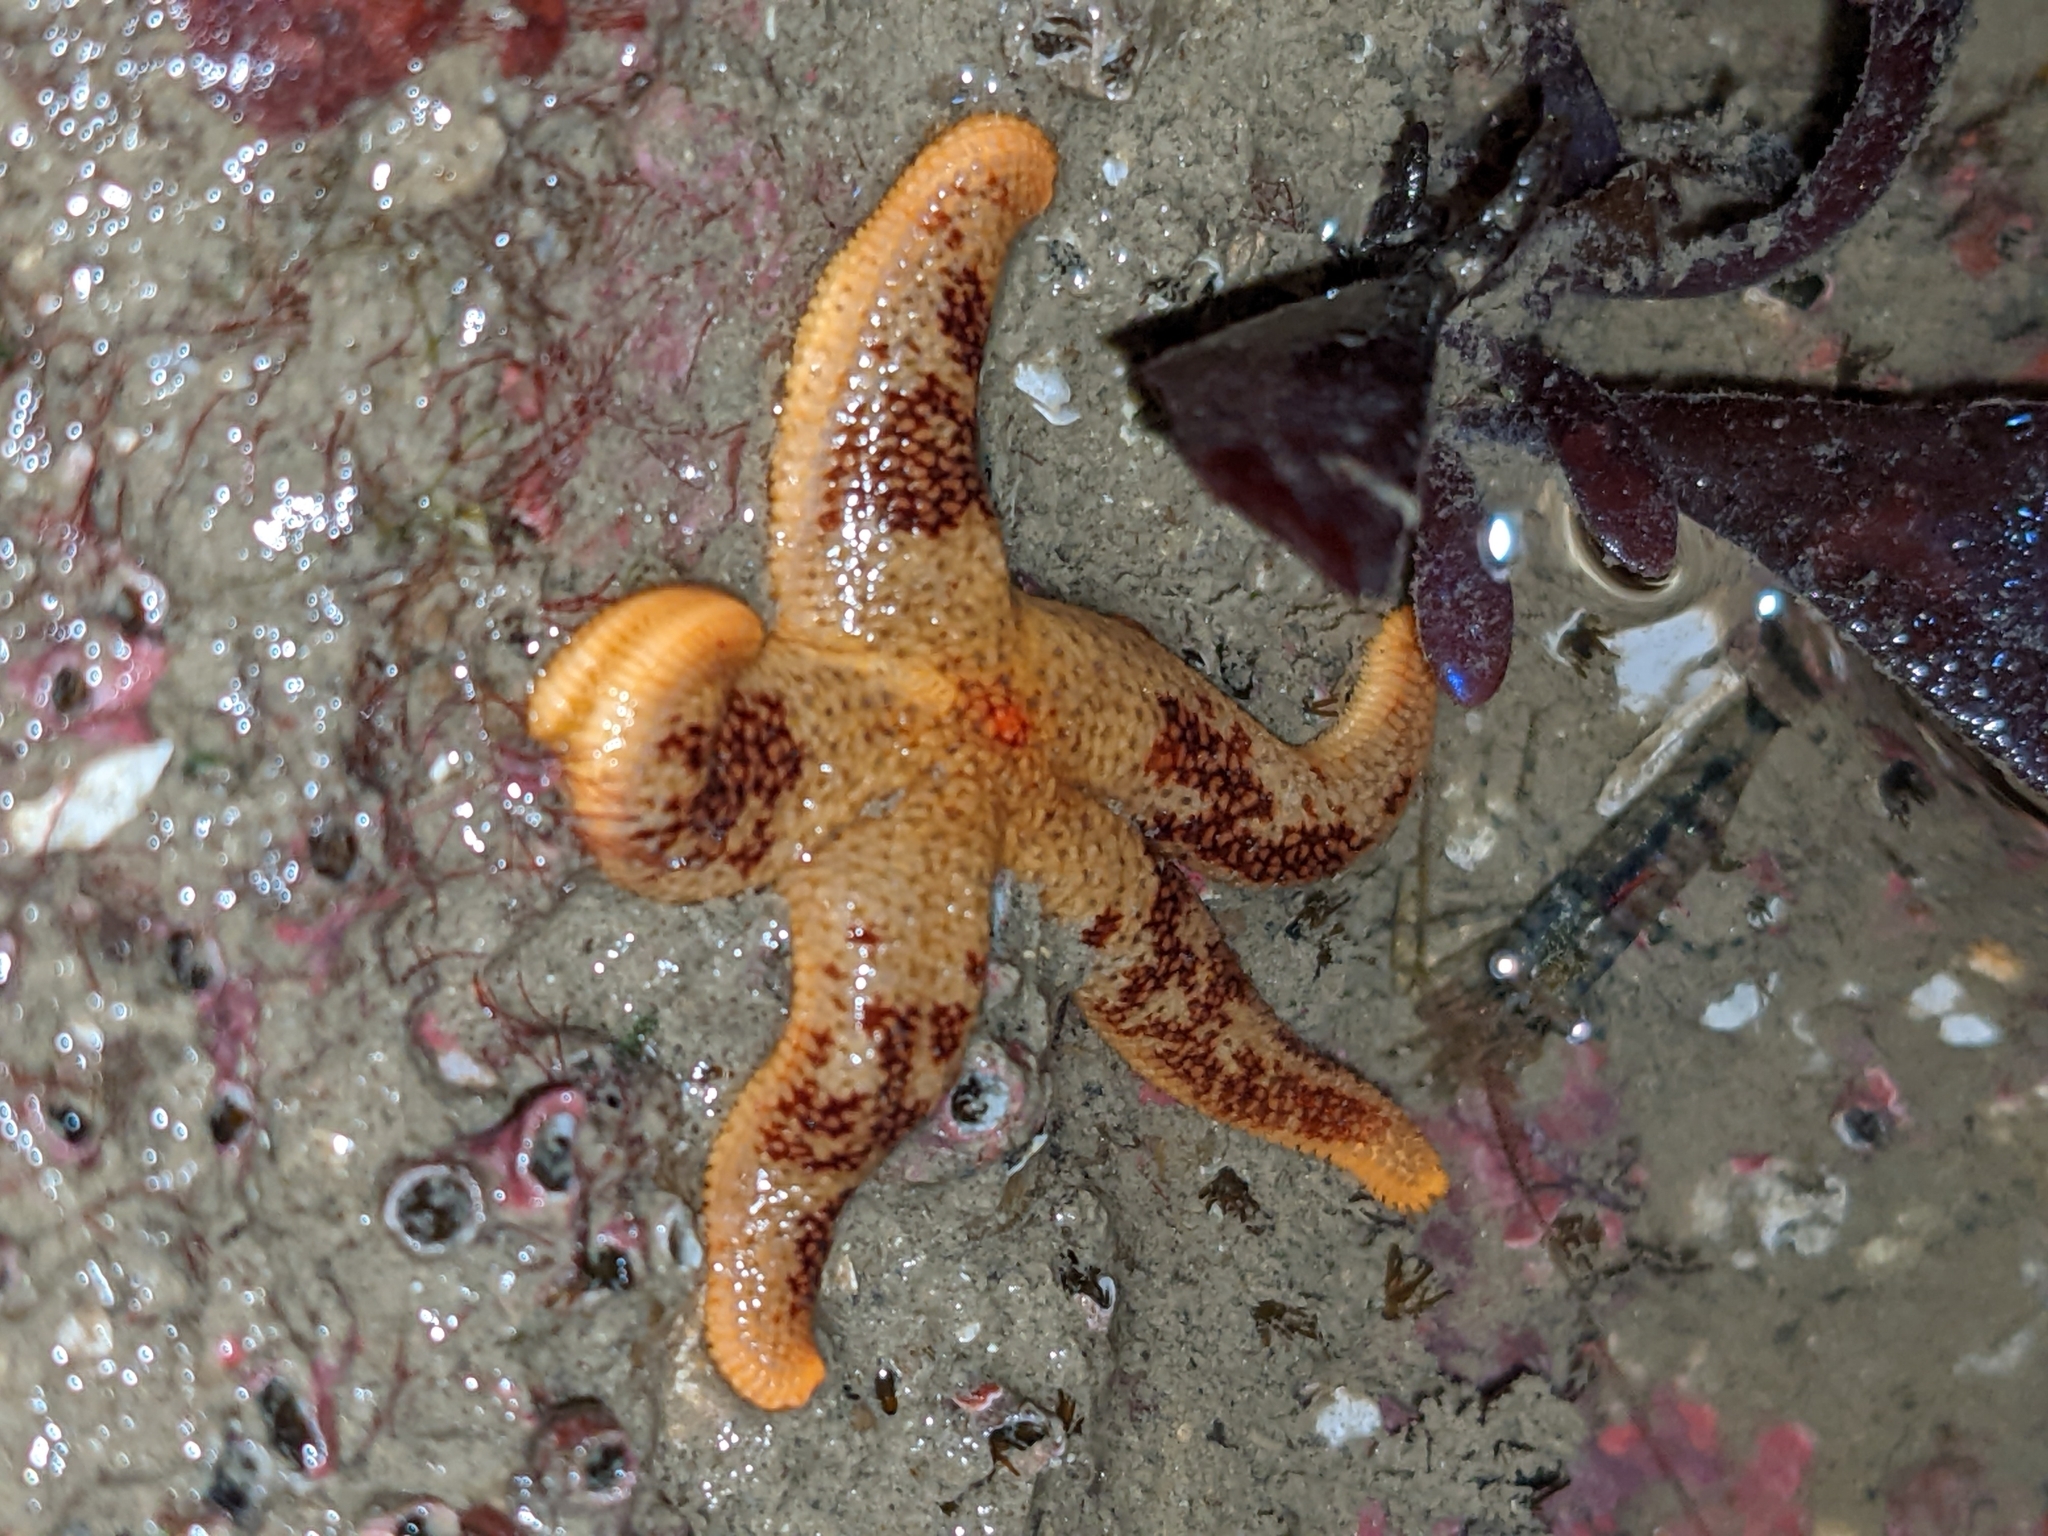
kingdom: Animalia
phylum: Echinodermata
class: Asteroidea
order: Spinulosida
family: Echinasteridae
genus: Henricia
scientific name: Henricia pumila
